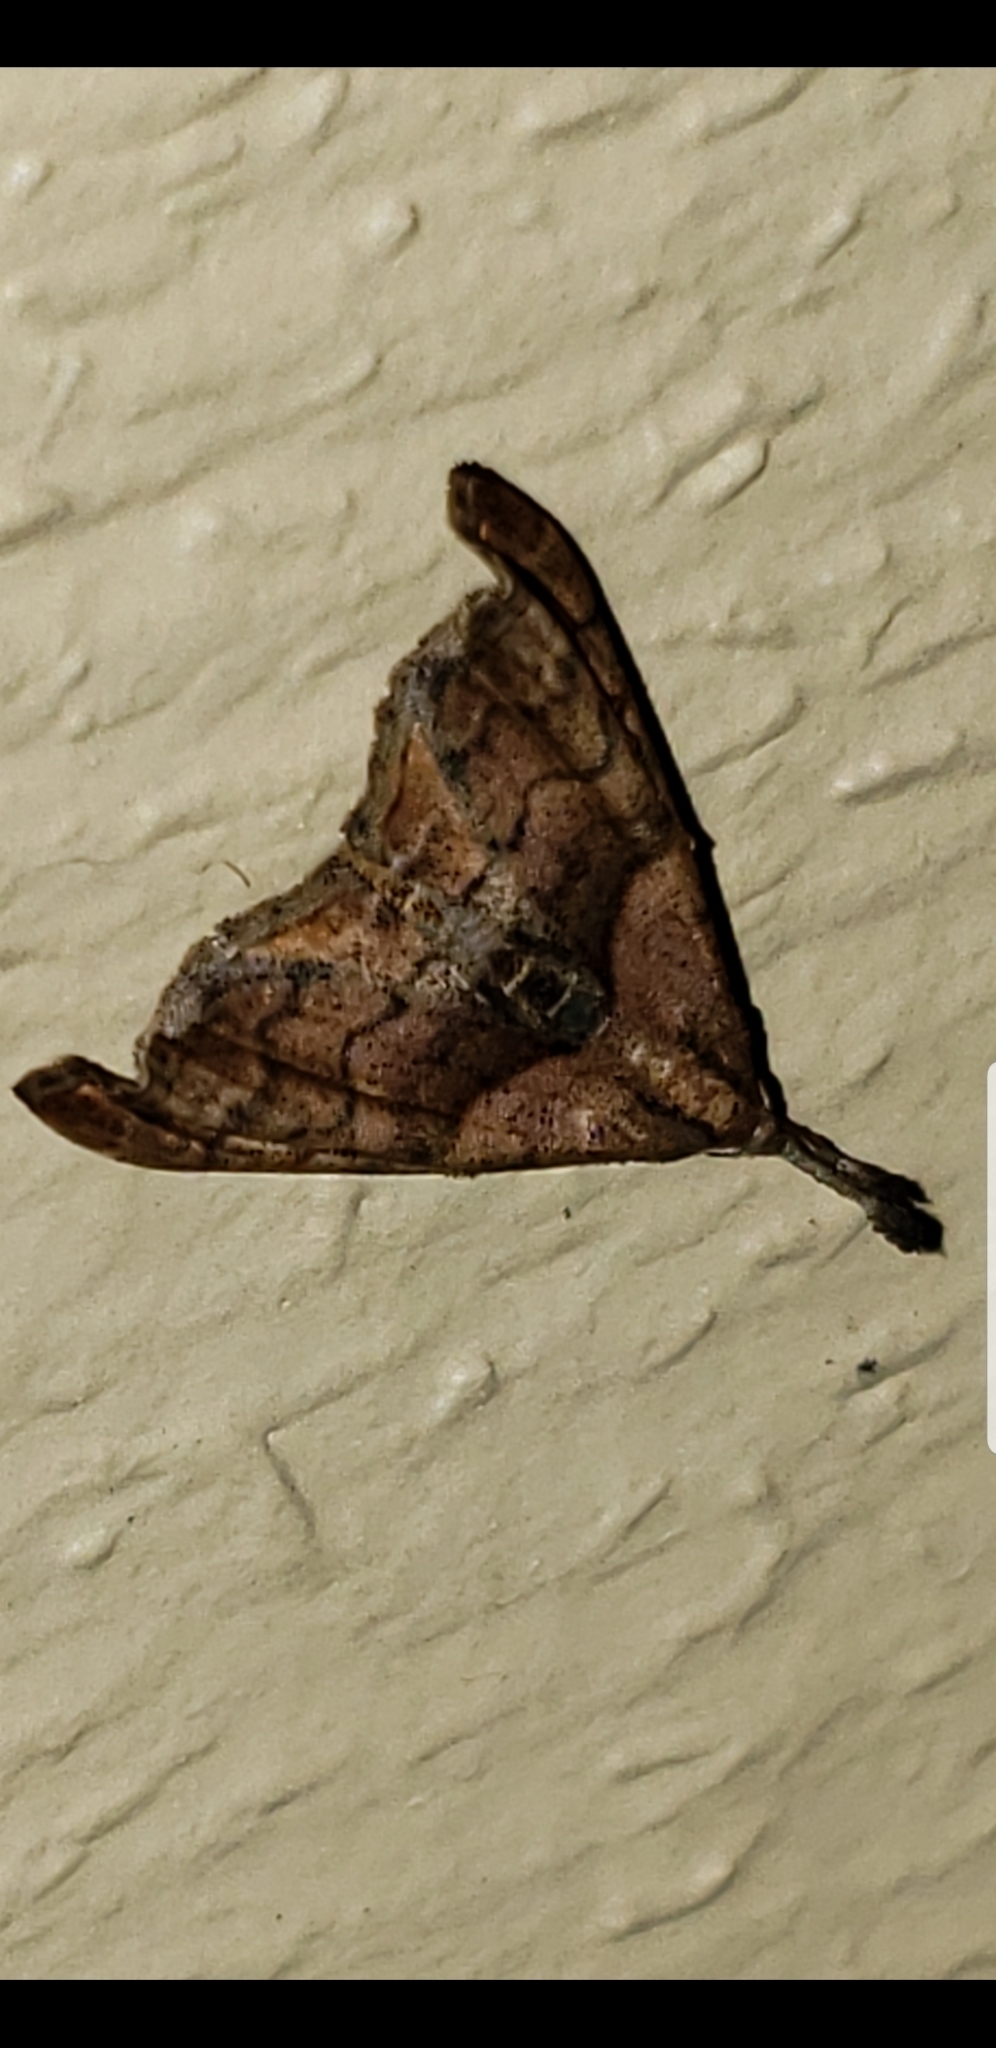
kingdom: Animalia
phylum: Arthropoda
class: Insecta
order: Lepidoptera
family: Erebidae
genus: Palthis
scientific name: Palthis angulalis
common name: Dark-spotted palthis moth
